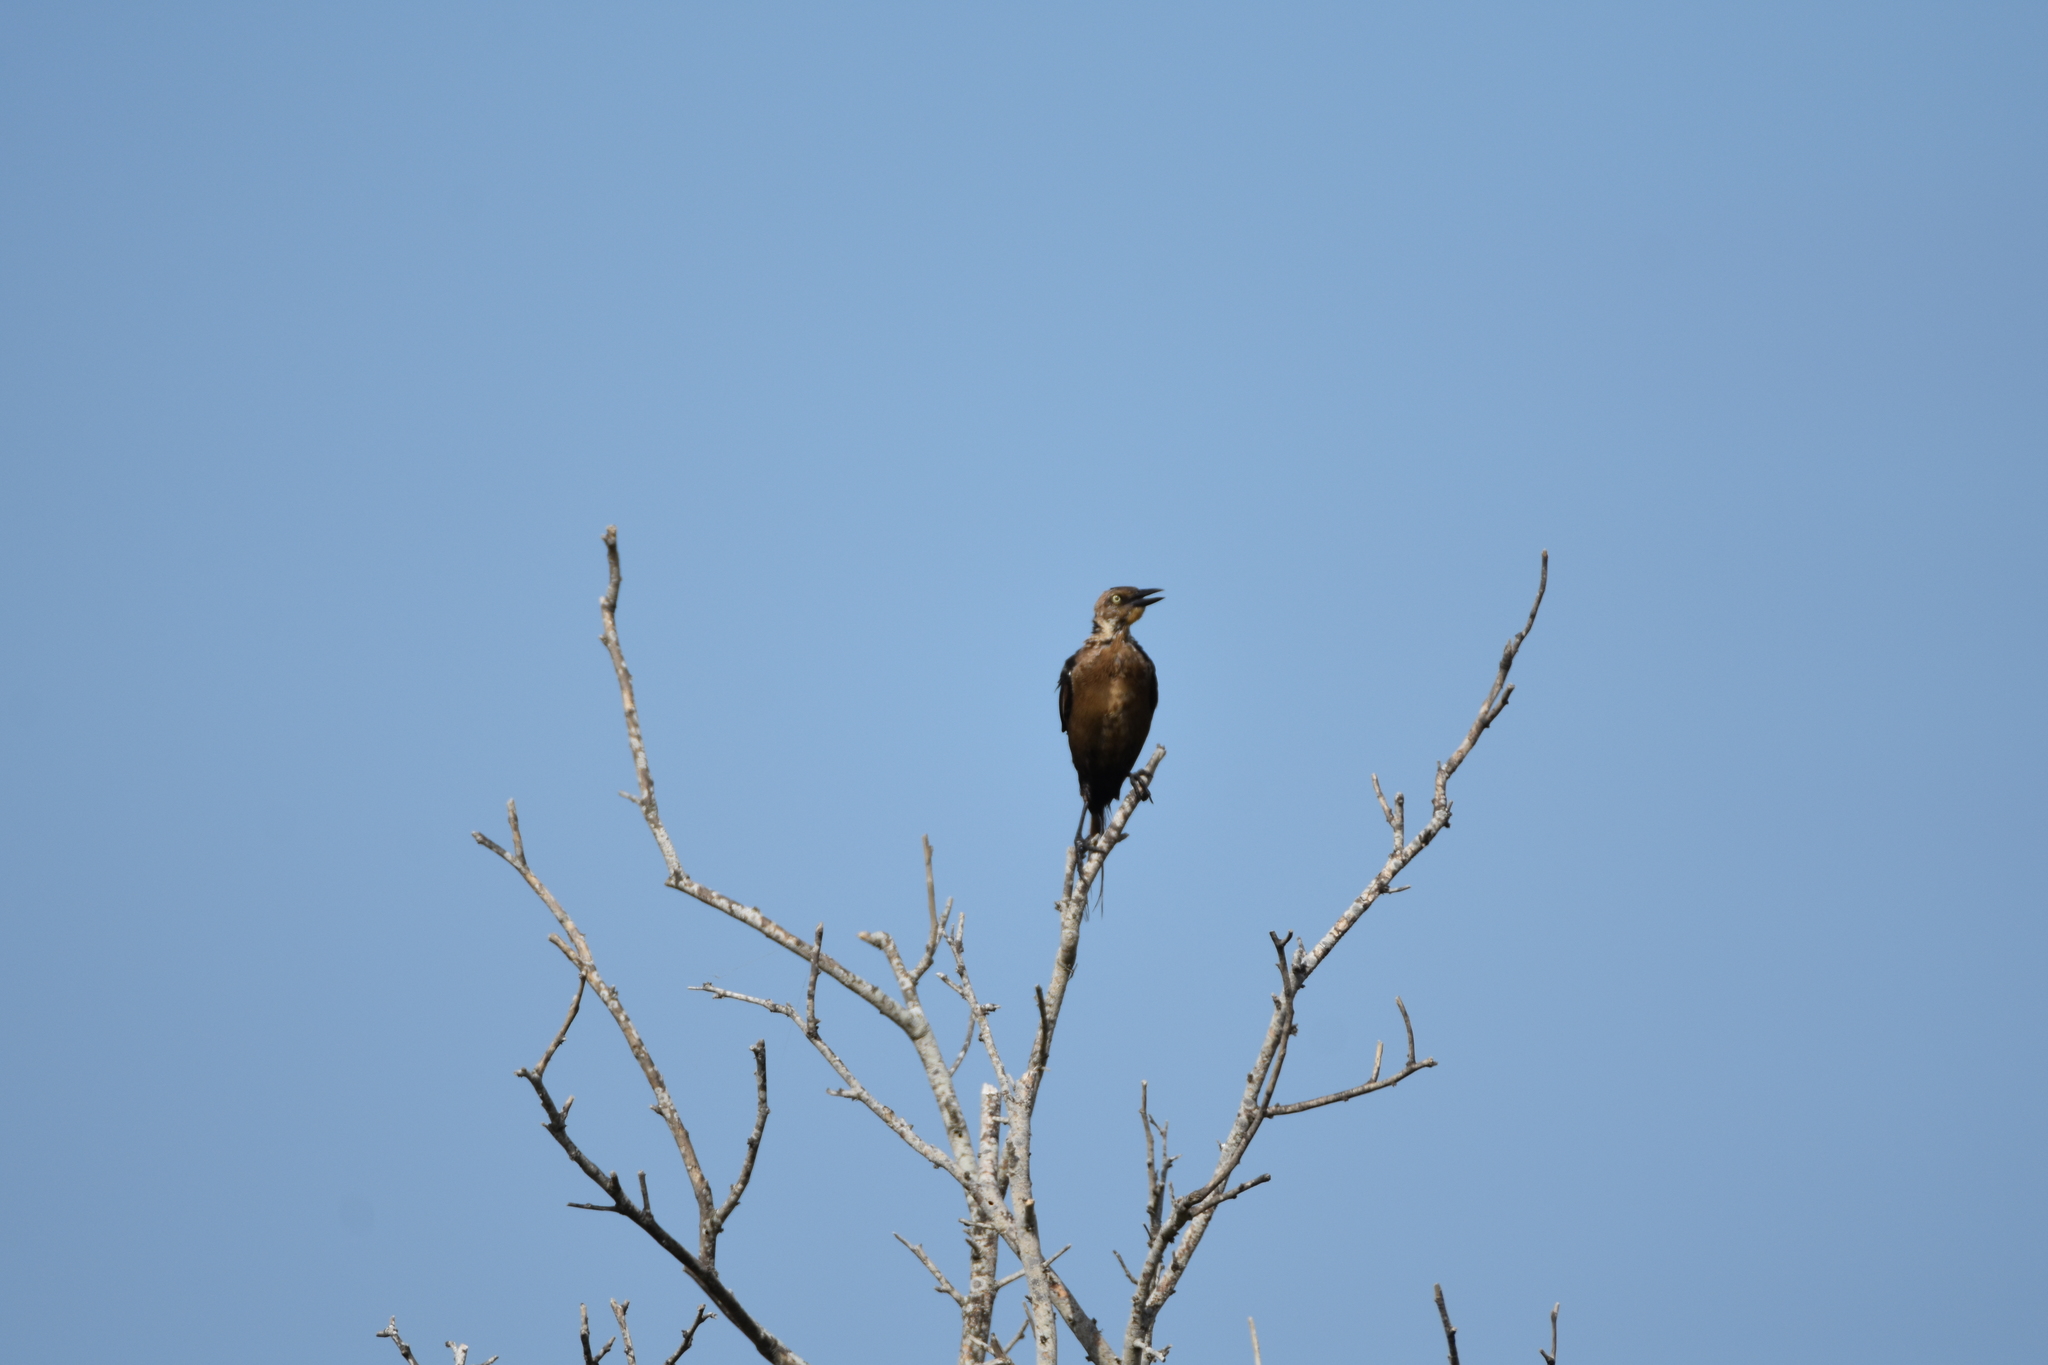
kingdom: Animalia
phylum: Chordata
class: Aves
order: Passeriformes
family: Icteridae
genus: Quiscalus
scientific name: Quiscalus mexicanus
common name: Great-tailed grackle
